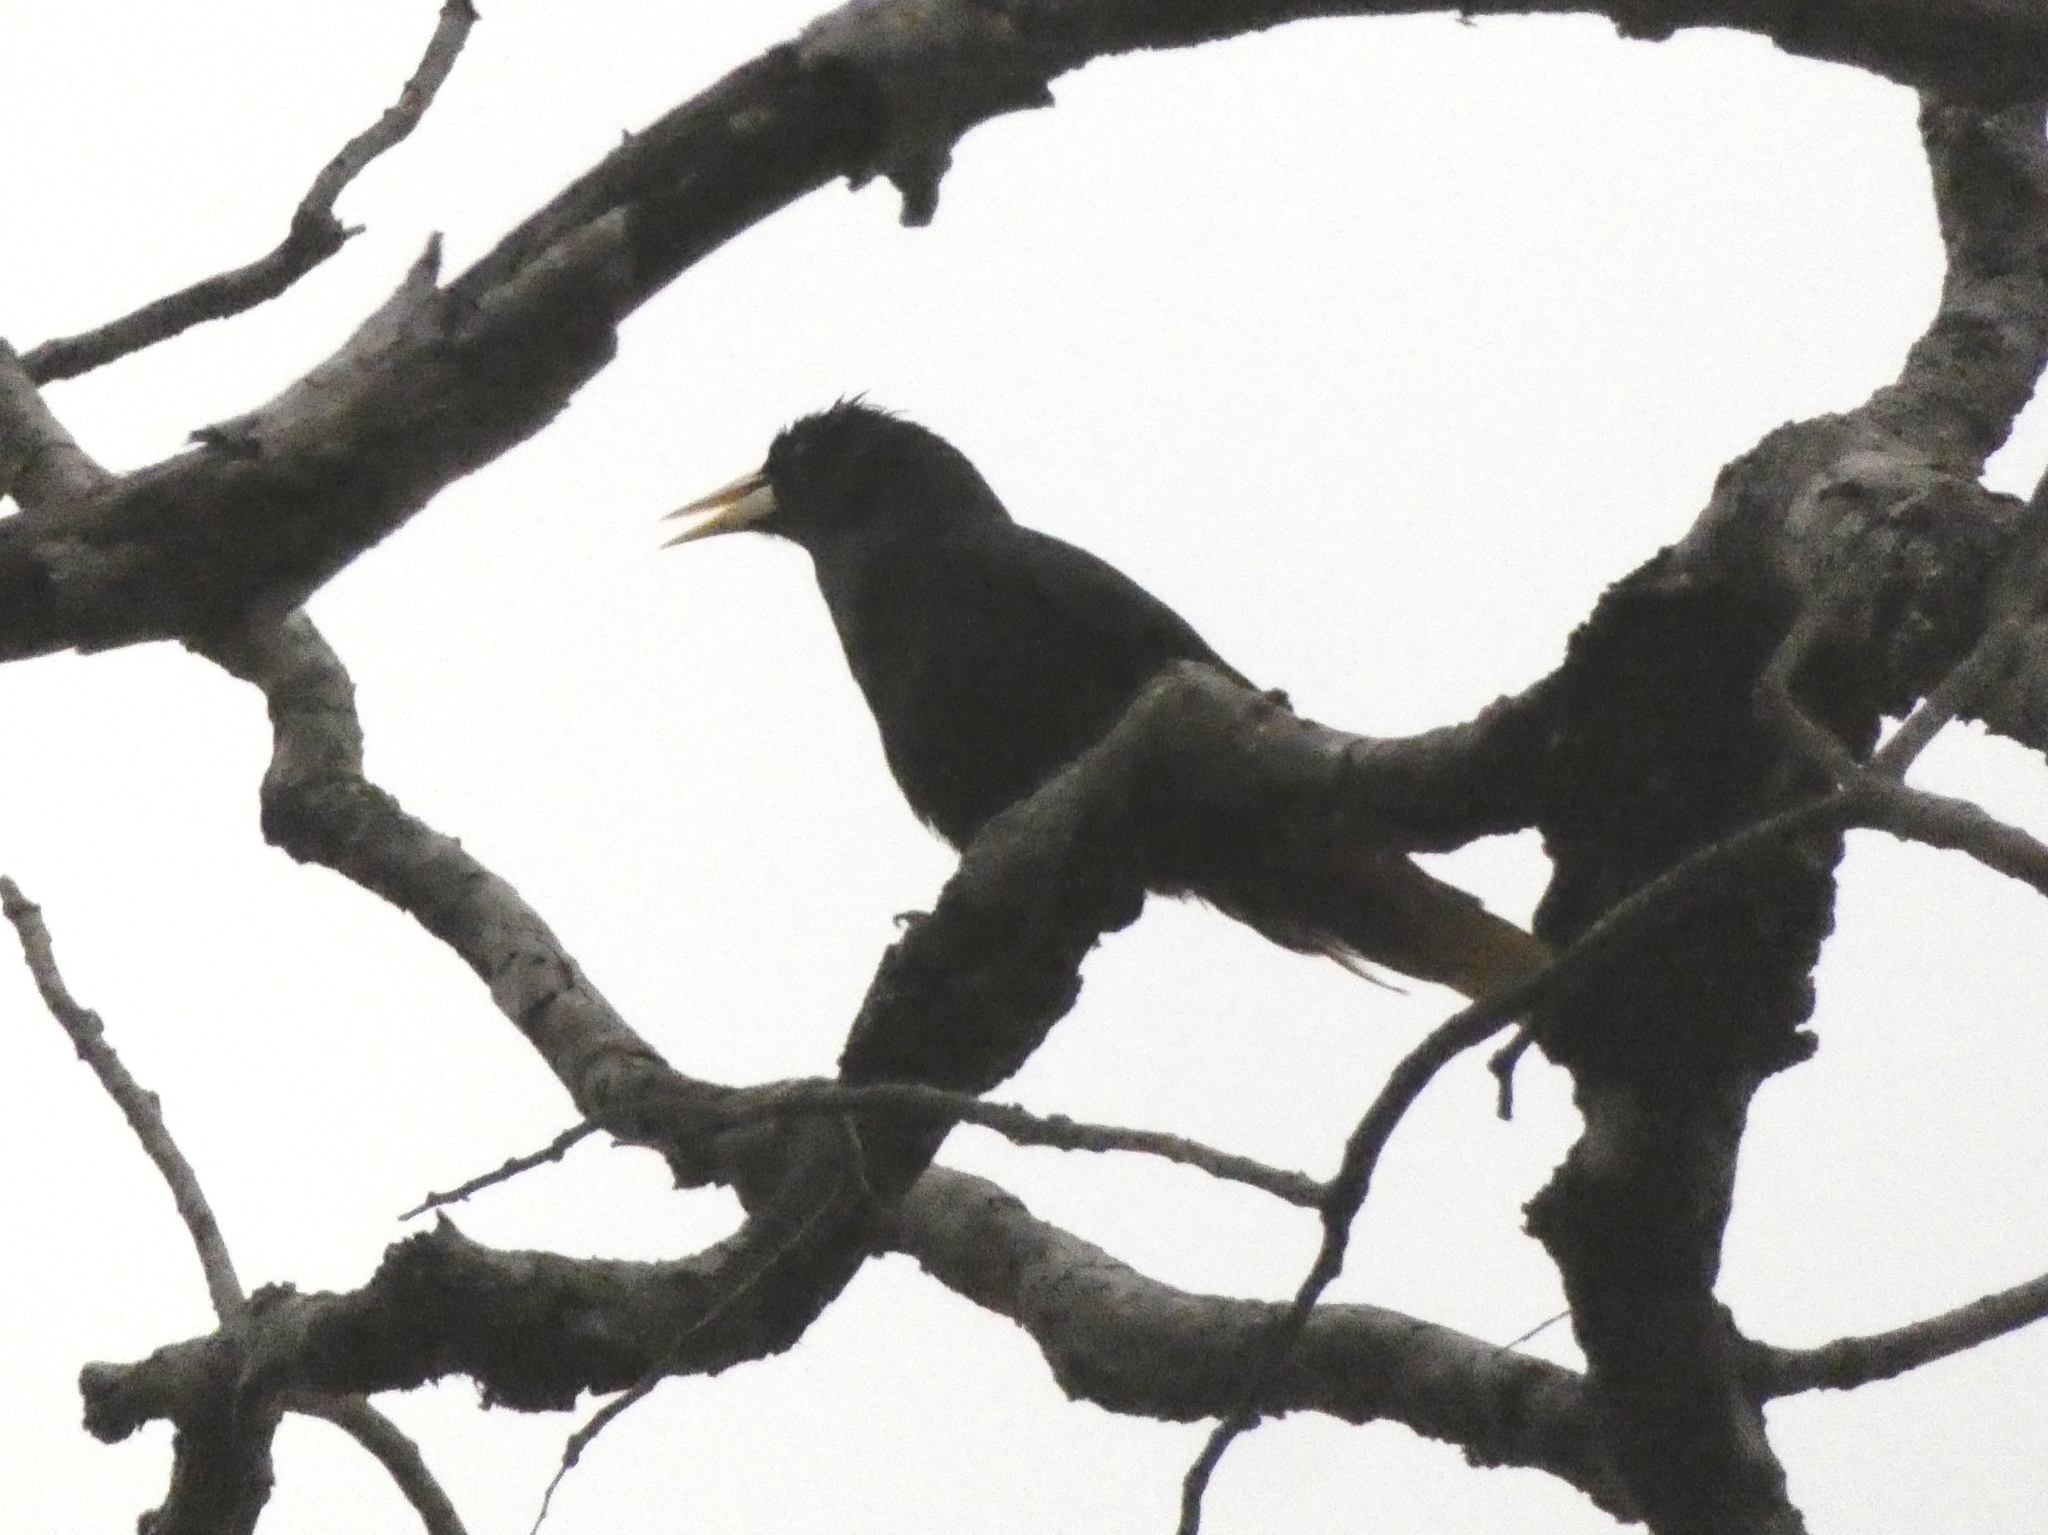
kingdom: Animalia
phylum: Chordata
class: Aves
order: Passeriformes
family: Icteridae
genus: Psarocolius
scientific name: Psarocolius decumanus
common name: Crested oropendola
